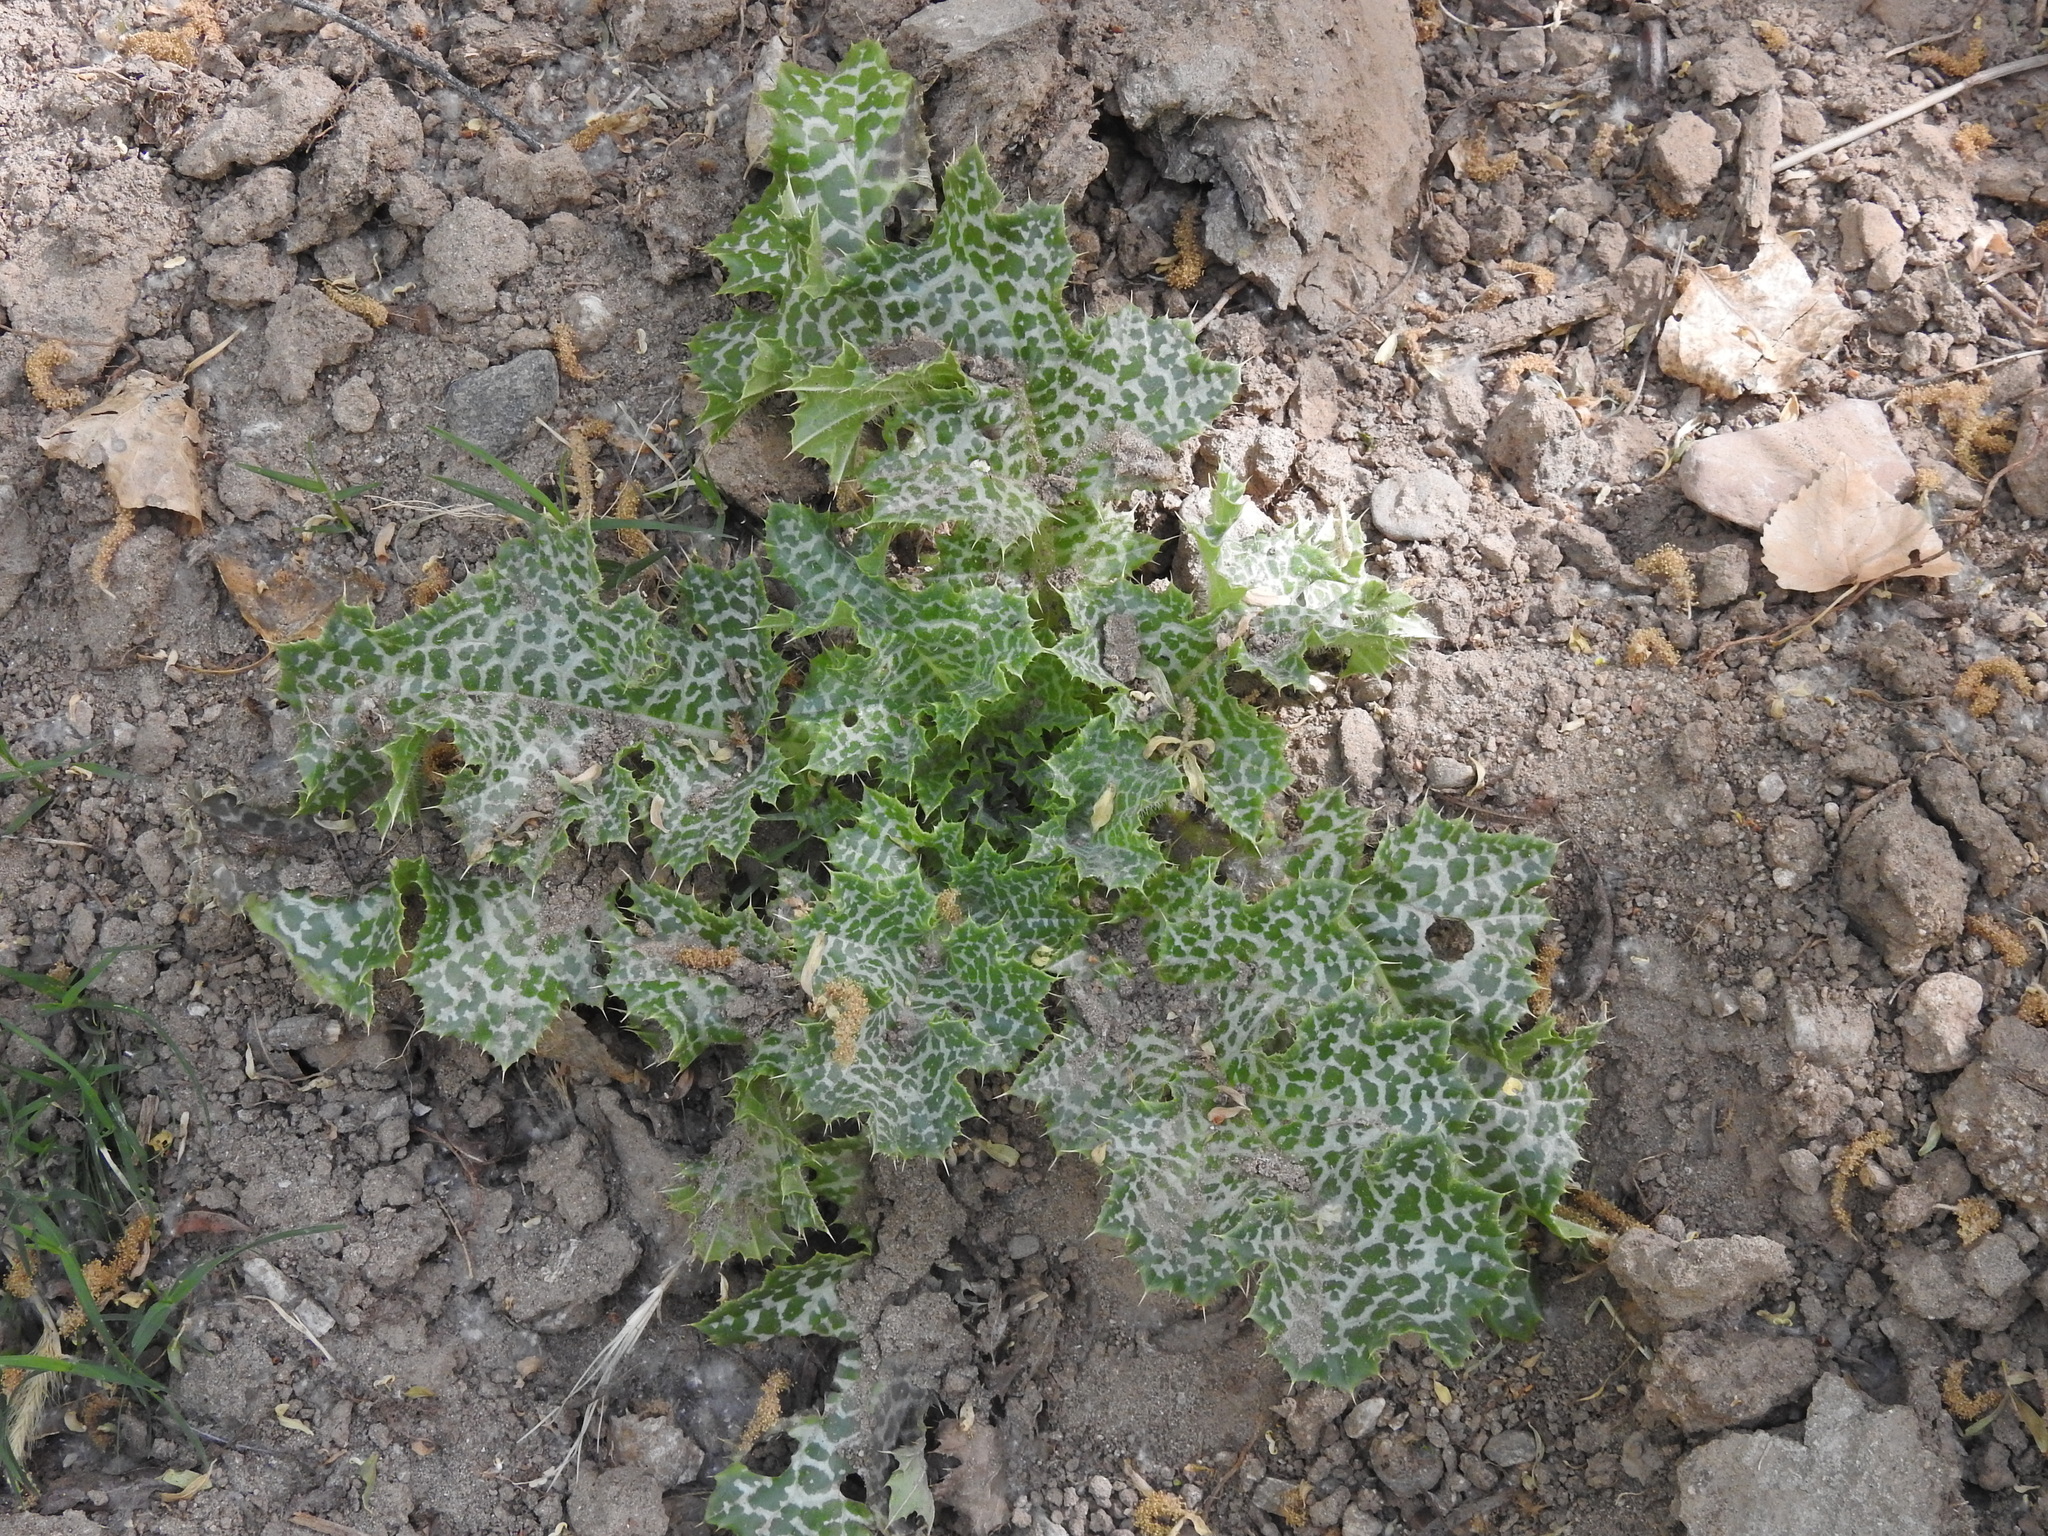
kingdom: Plantae
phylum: Tracheophyta
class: Magnoliopsida
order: Asterales
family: Asteraceae
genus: Silybum
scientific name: Silybum marianum
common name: Milk thistle
